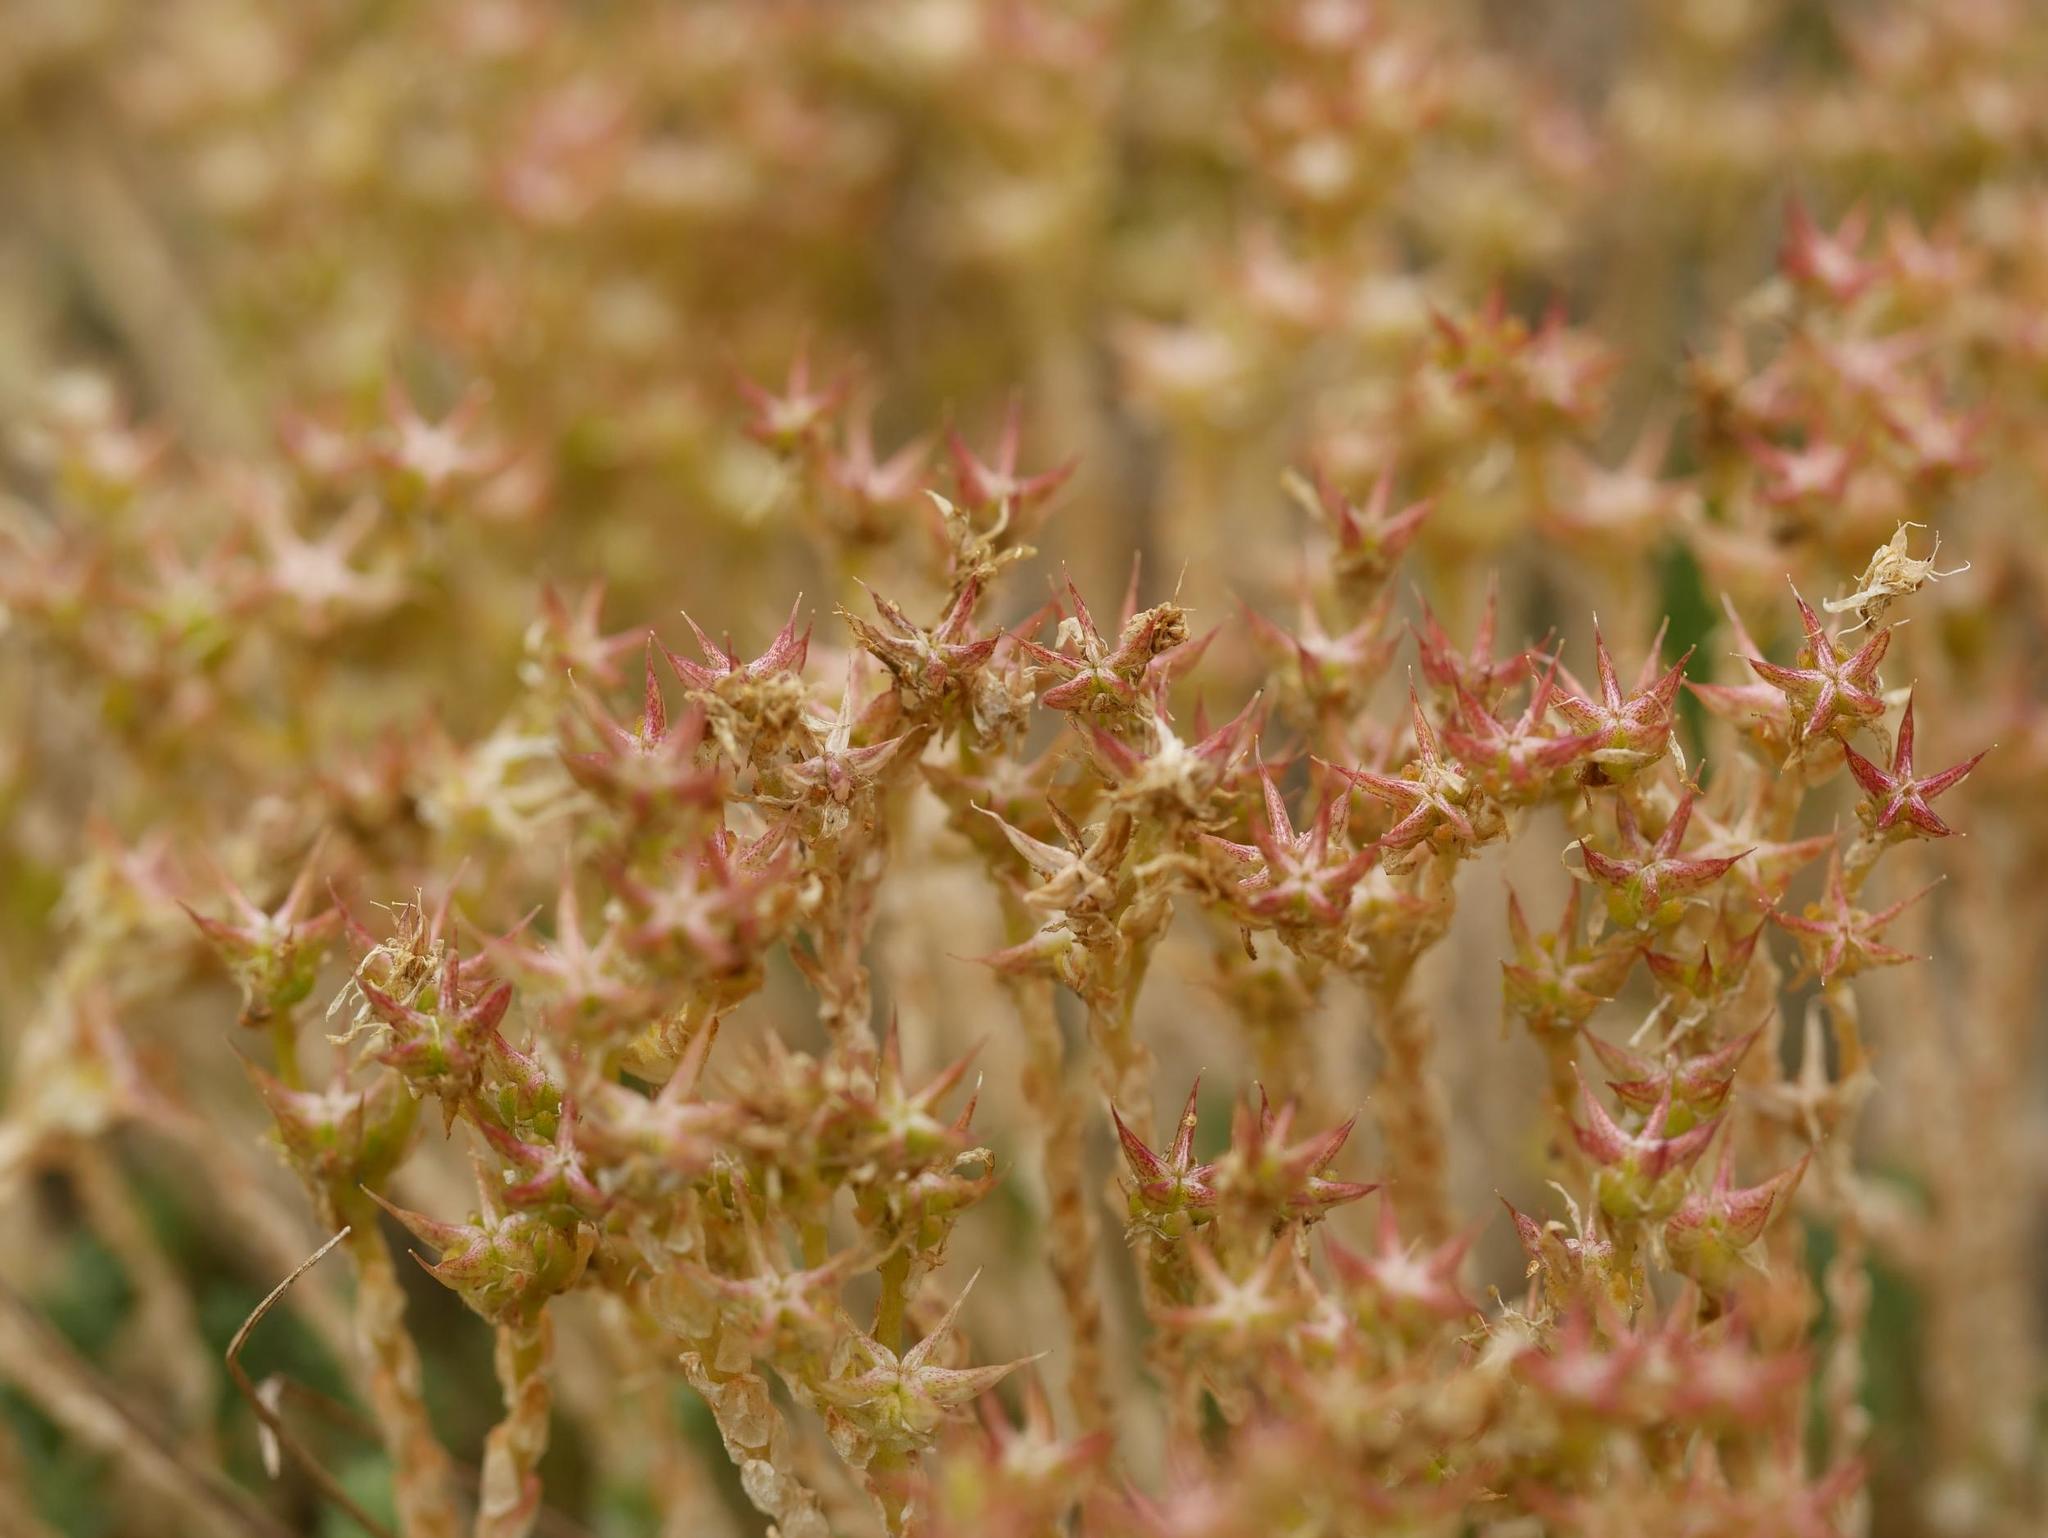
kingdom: Plantae
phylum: Tracheophyta
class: Magnoliopsida
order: Saxifragales
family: Crassulaceae
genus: Sedum
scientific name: Sedum acre
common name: Biting stonecrop
